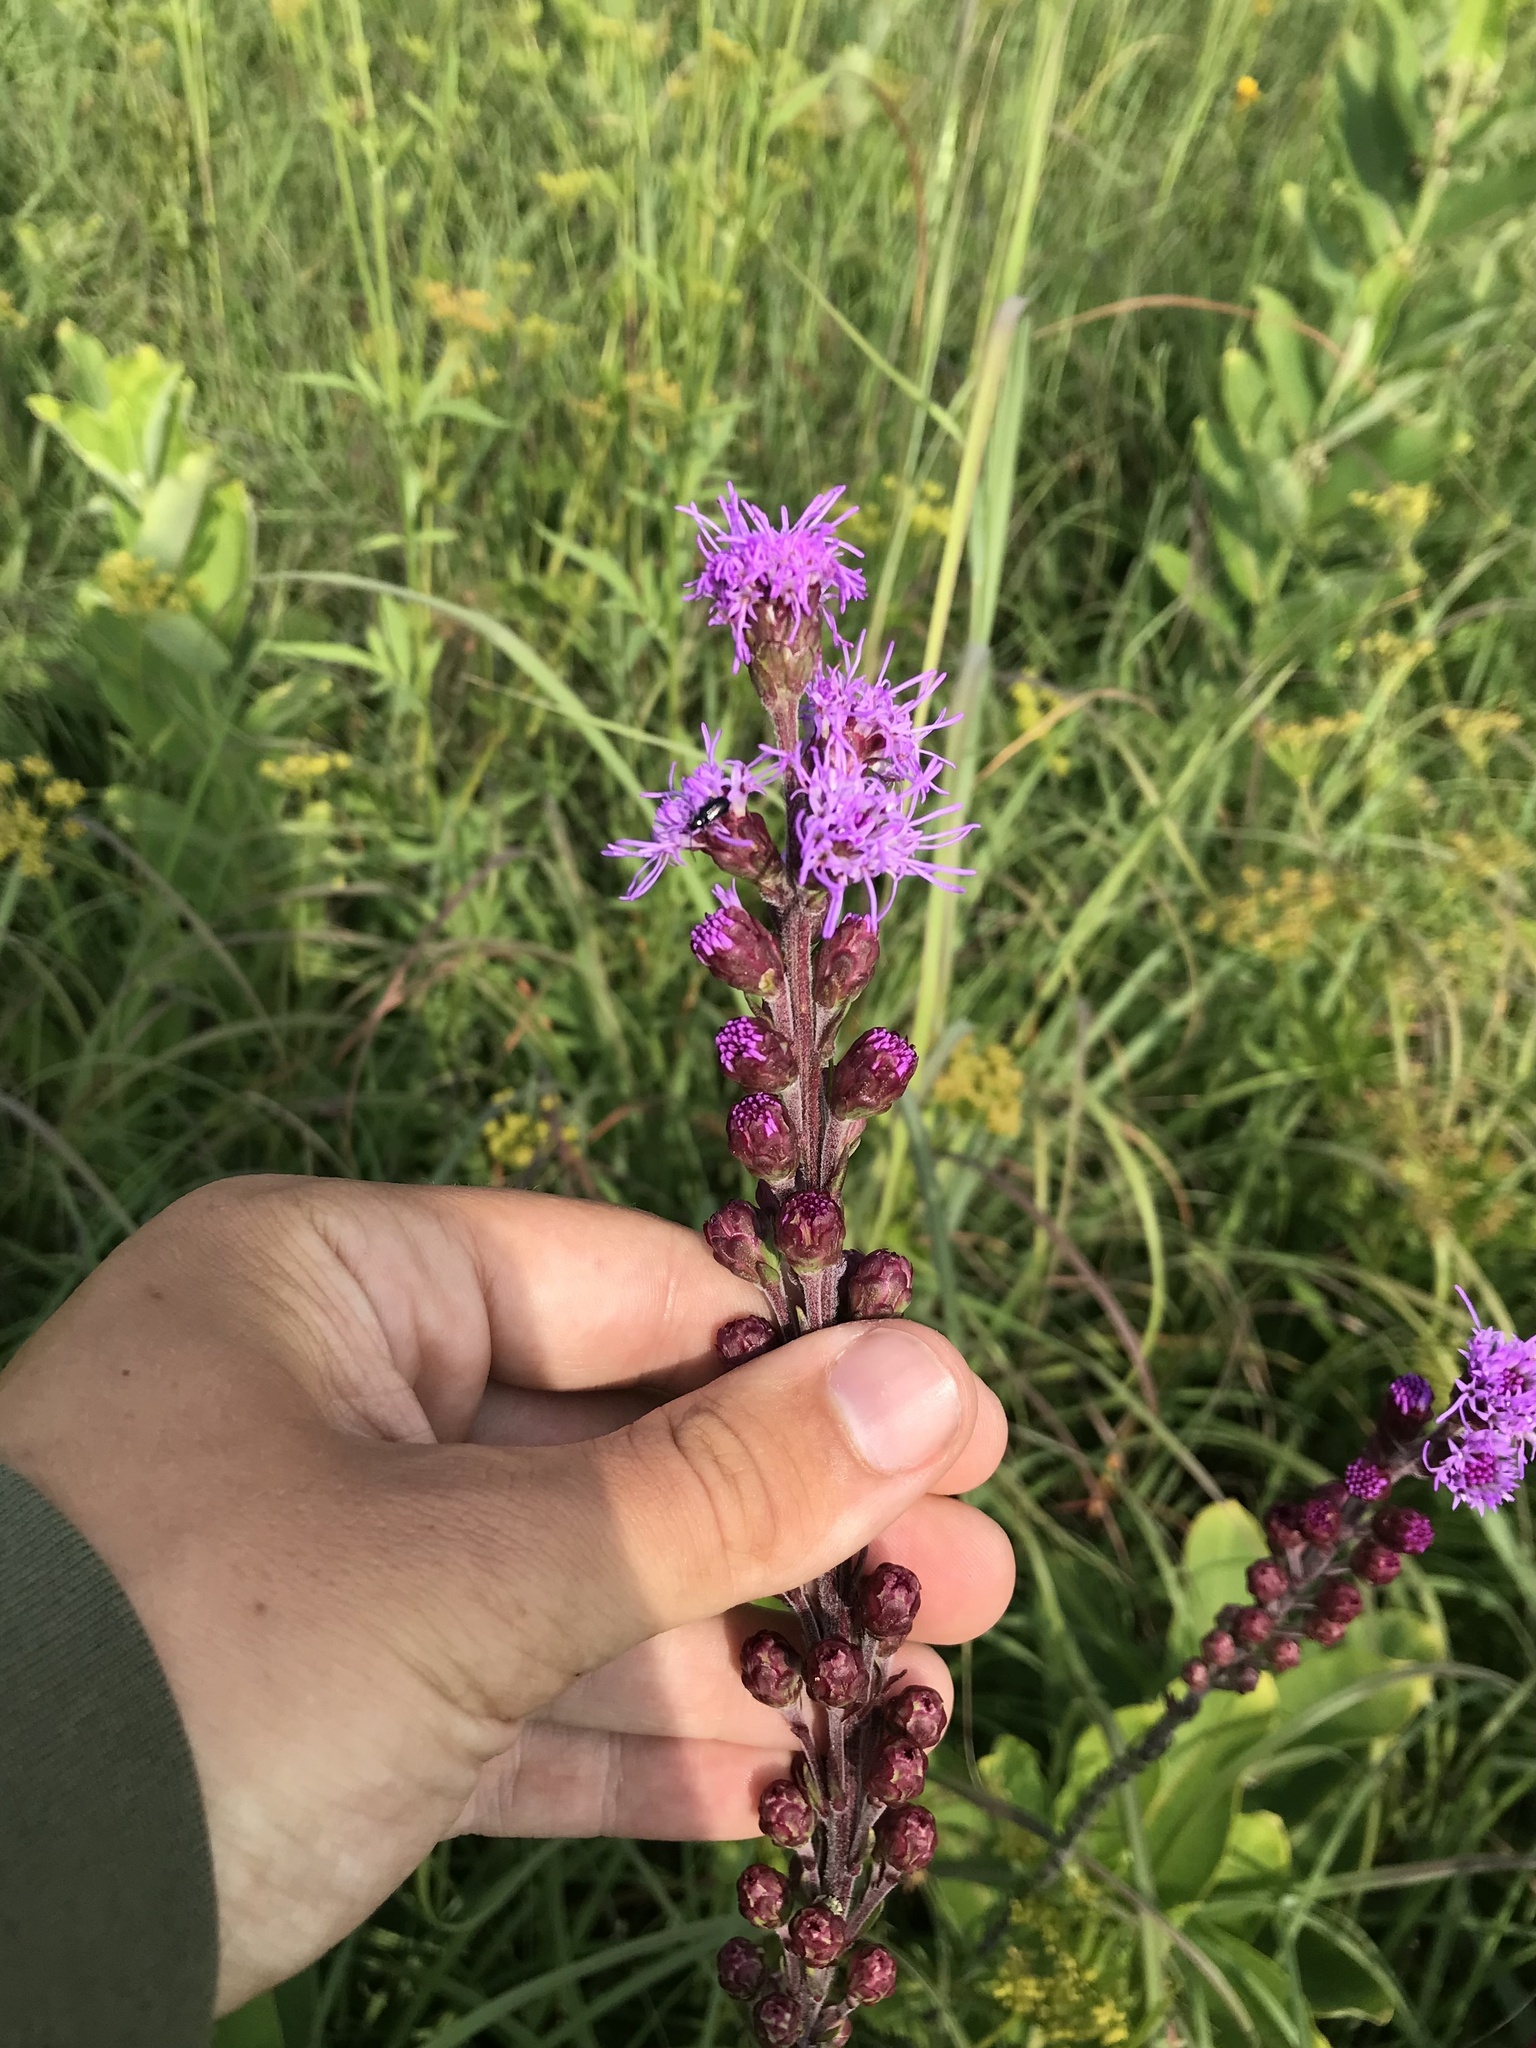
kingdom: Plantae
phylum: Tracheophyta
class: Magnoliopsida
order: Asterales
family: Asteraceae
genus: Liatris
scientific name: Liatris ligulistylis
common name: Northern plains gayfeather
